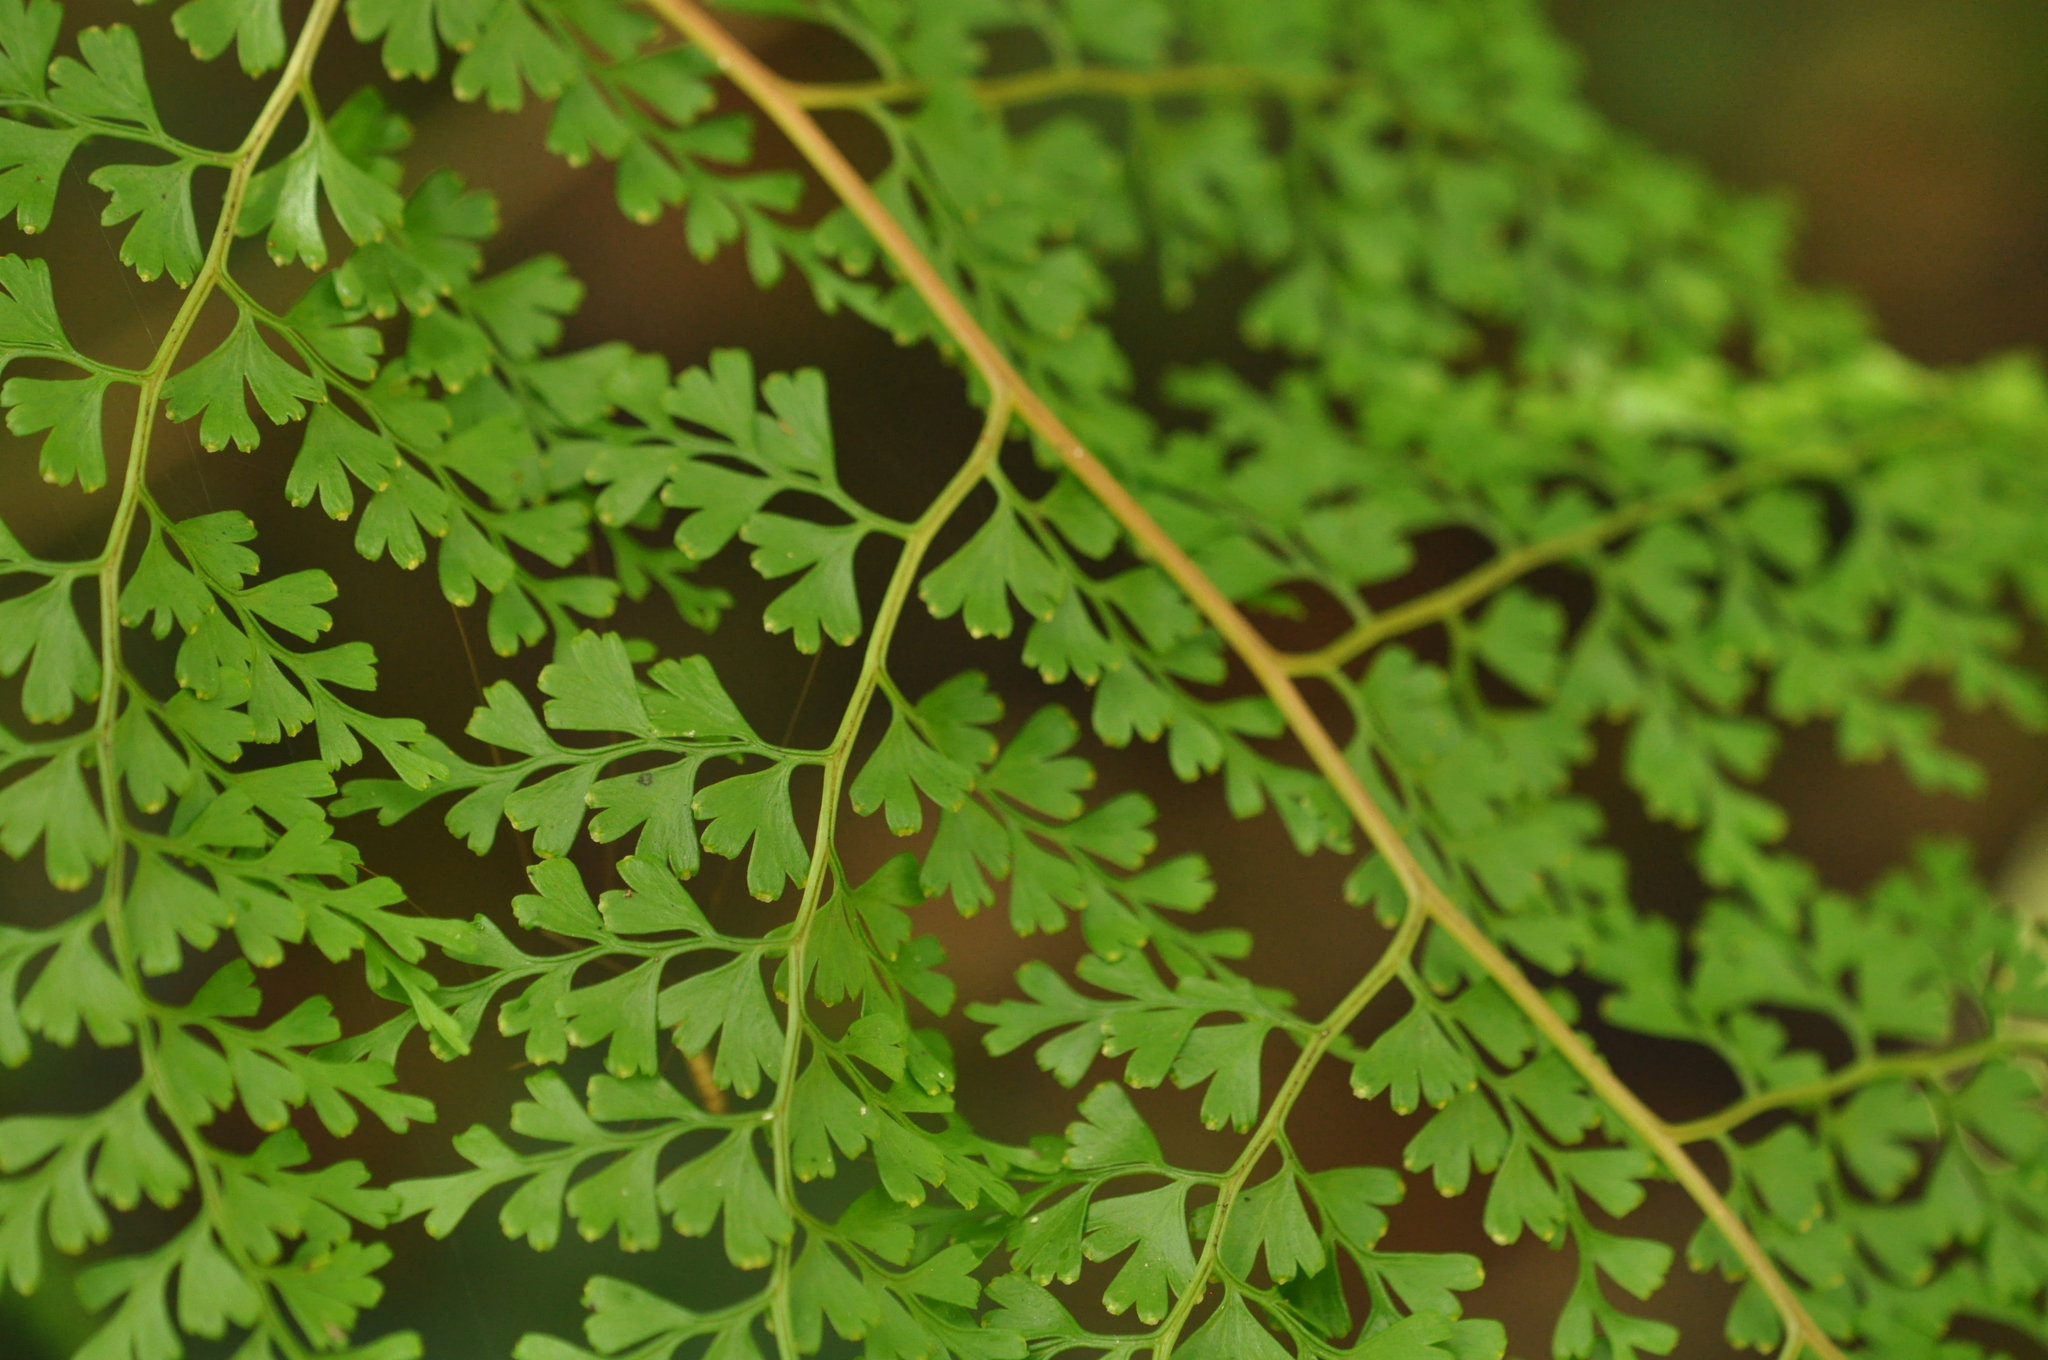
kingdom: Plantae
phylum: Tracheophyta
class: Polypodiopsida
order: Polypodiales
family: Lindsaeaceae
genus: Odontosoria
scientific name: Odontosoria melleri
